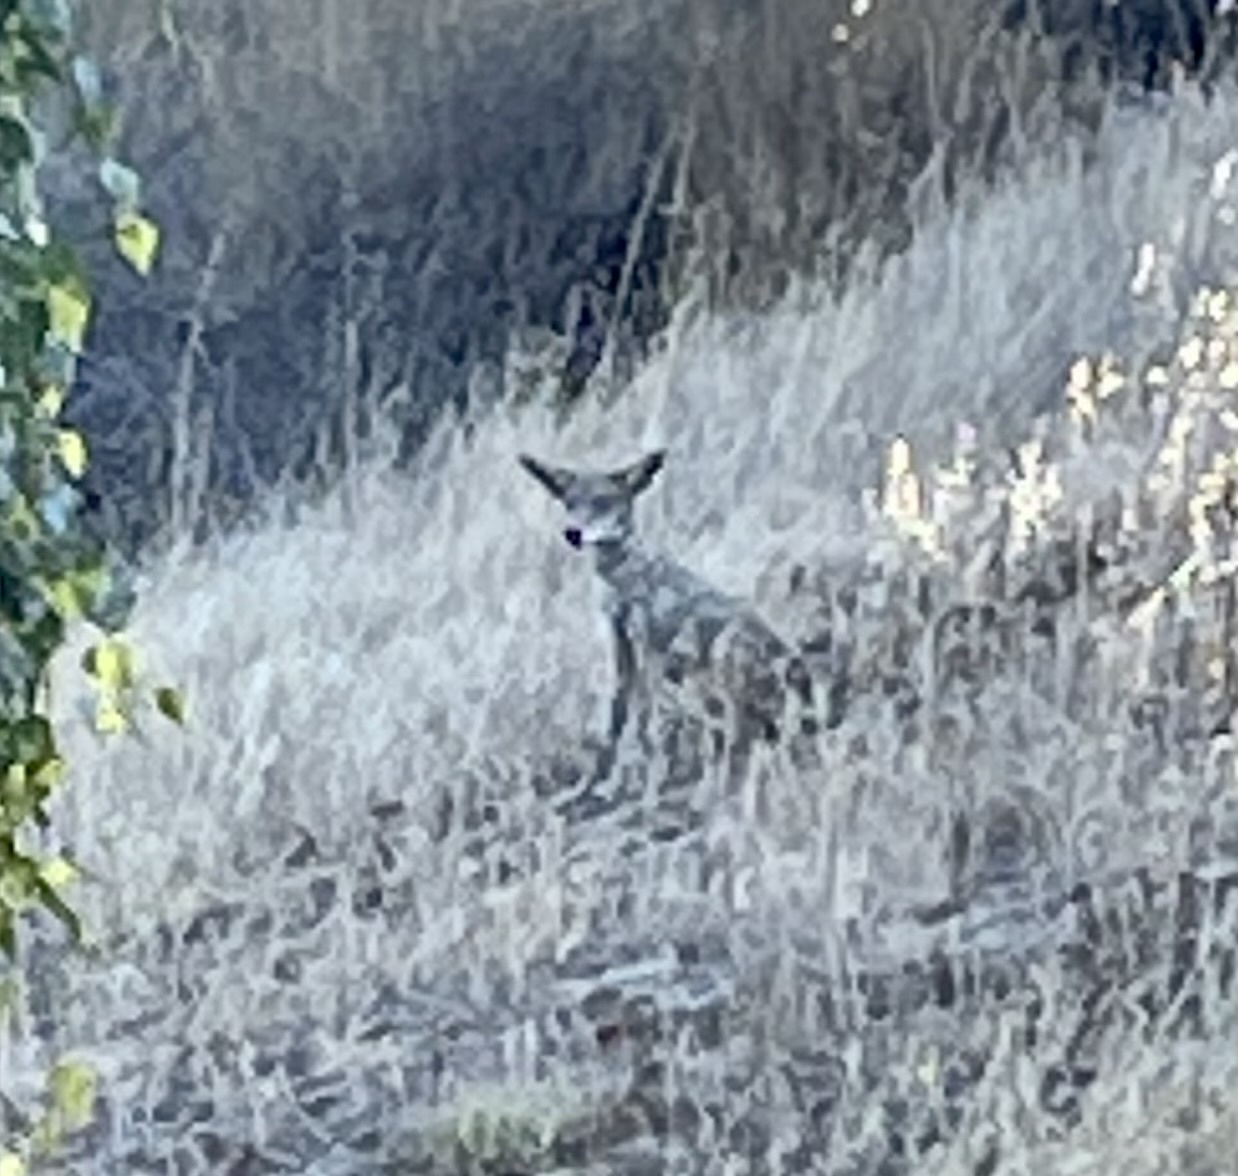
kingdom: Animalia
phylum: Chordata
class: Mammalia
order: Carnivora
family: Canidae
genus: Canis
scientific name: Canis latrans
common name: Coyote
